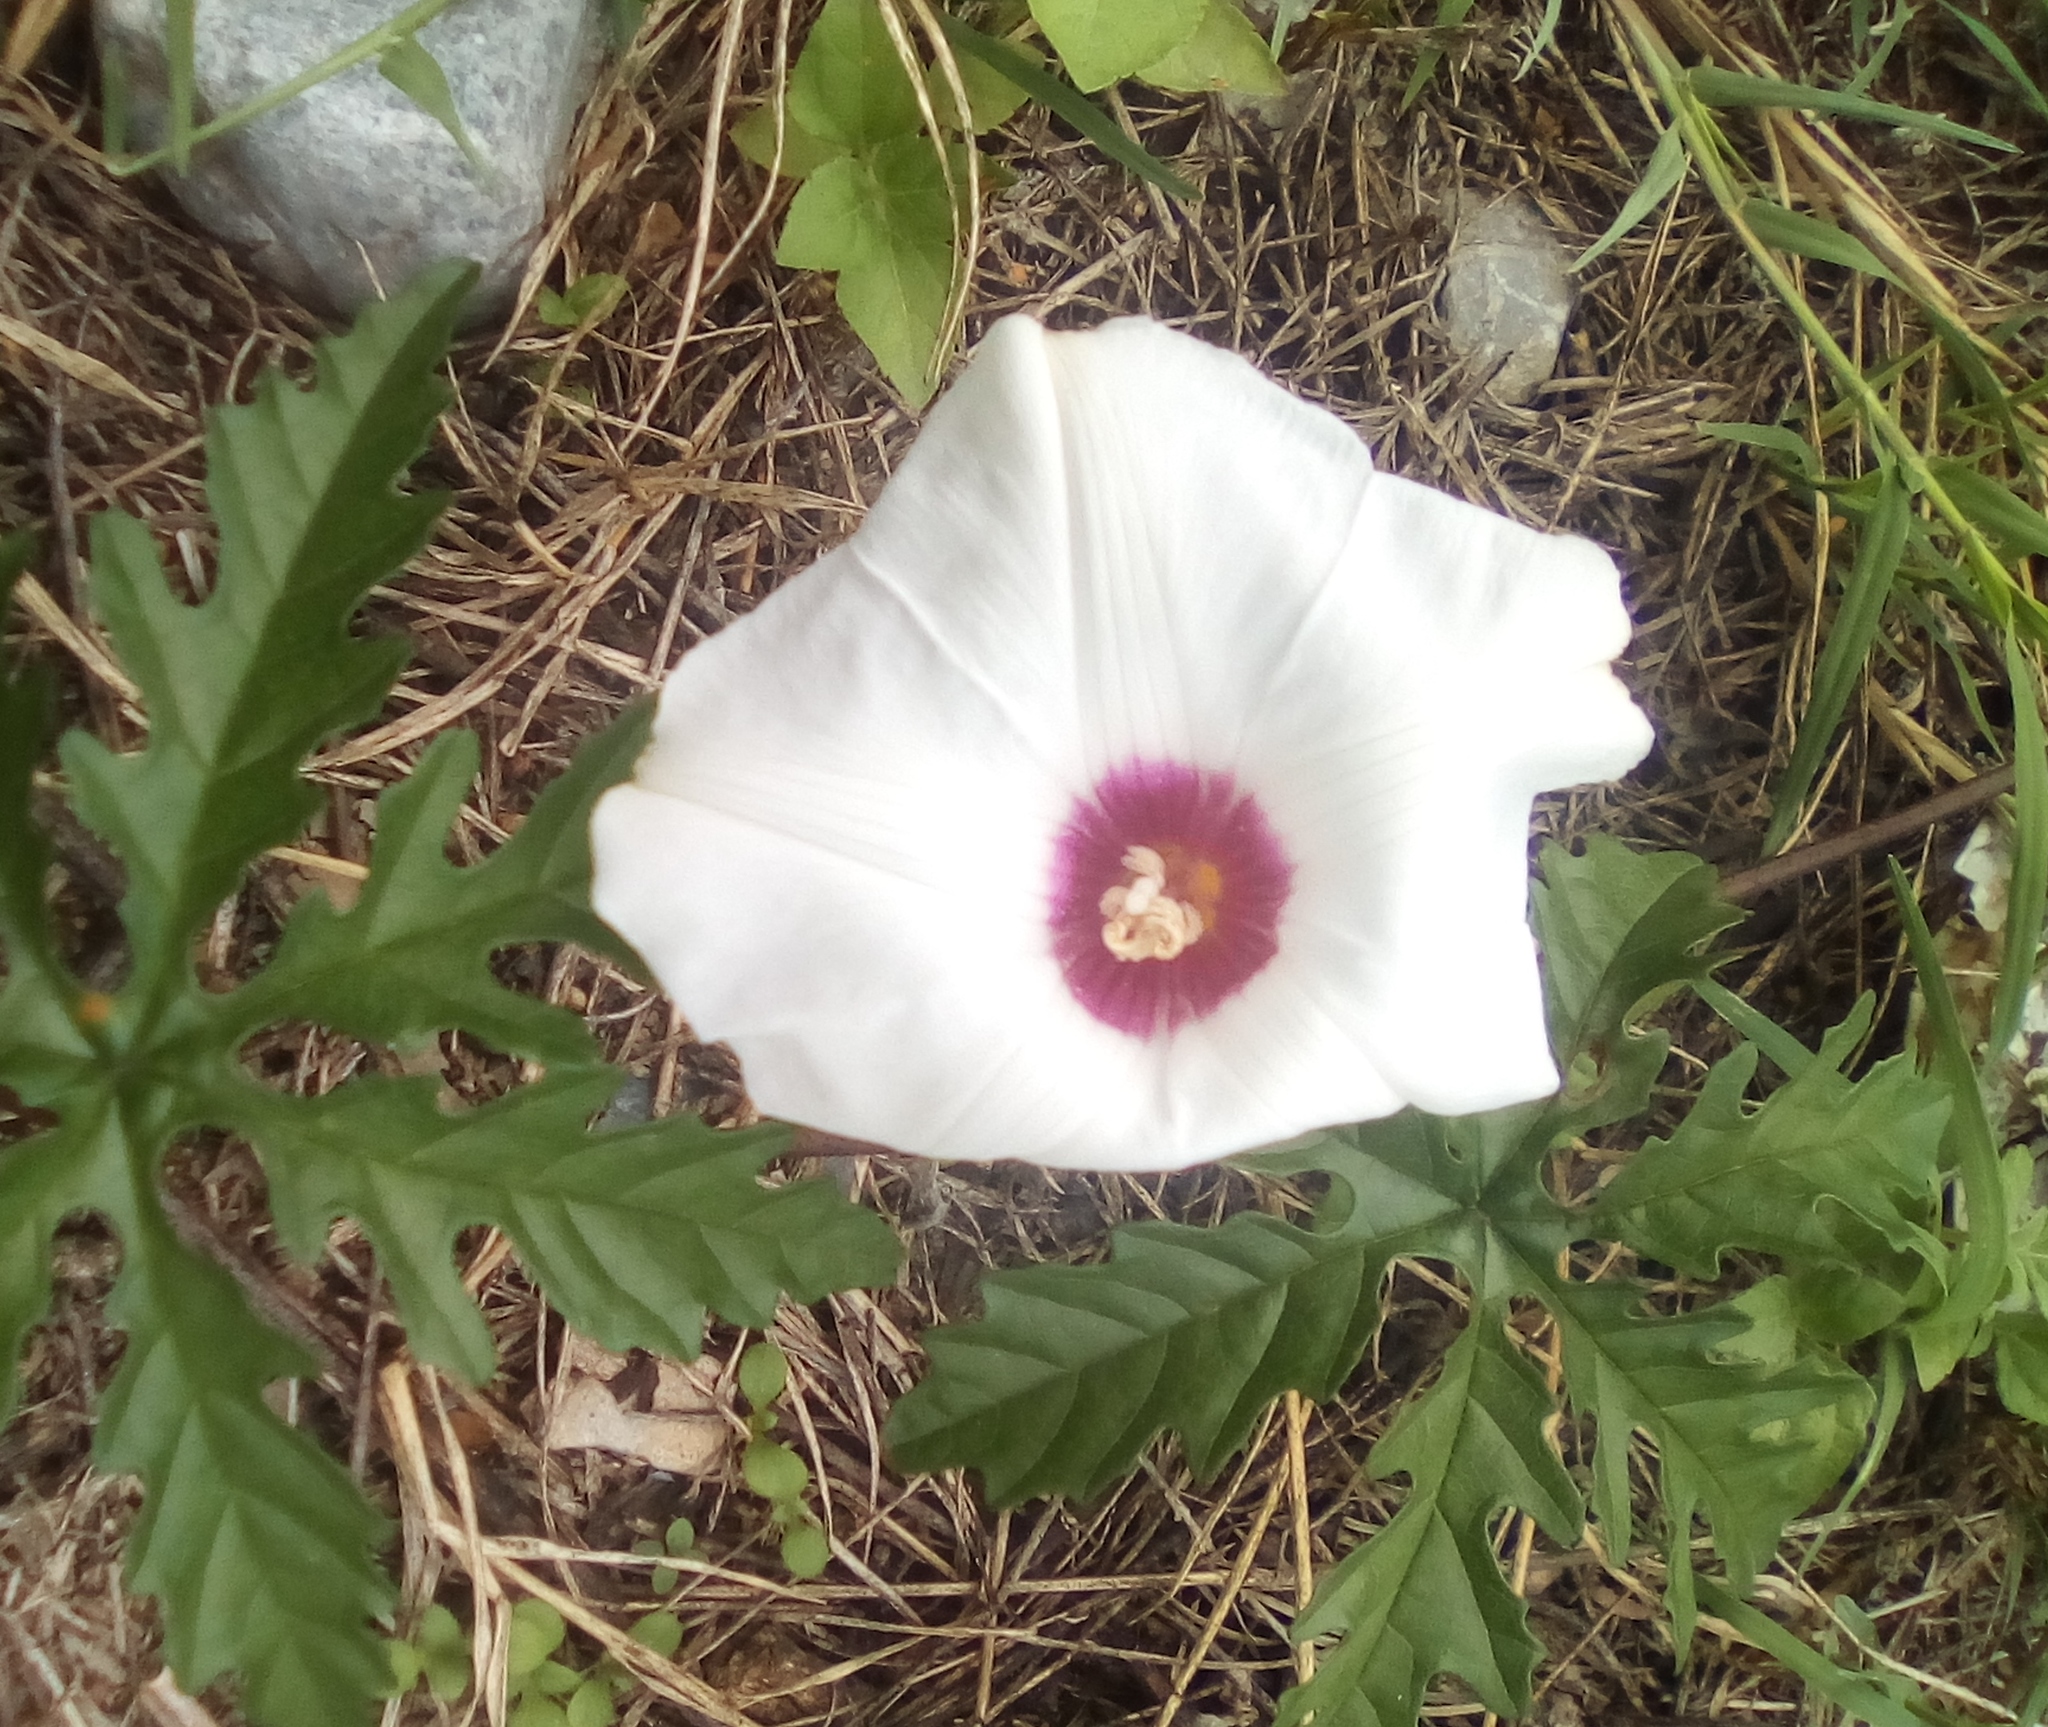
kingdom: Plantae
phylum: Tracheophyta
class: Magnoliopsida
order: Solanales
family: Convolvulaceae
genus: Distimake
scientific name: Distimake dissectus
